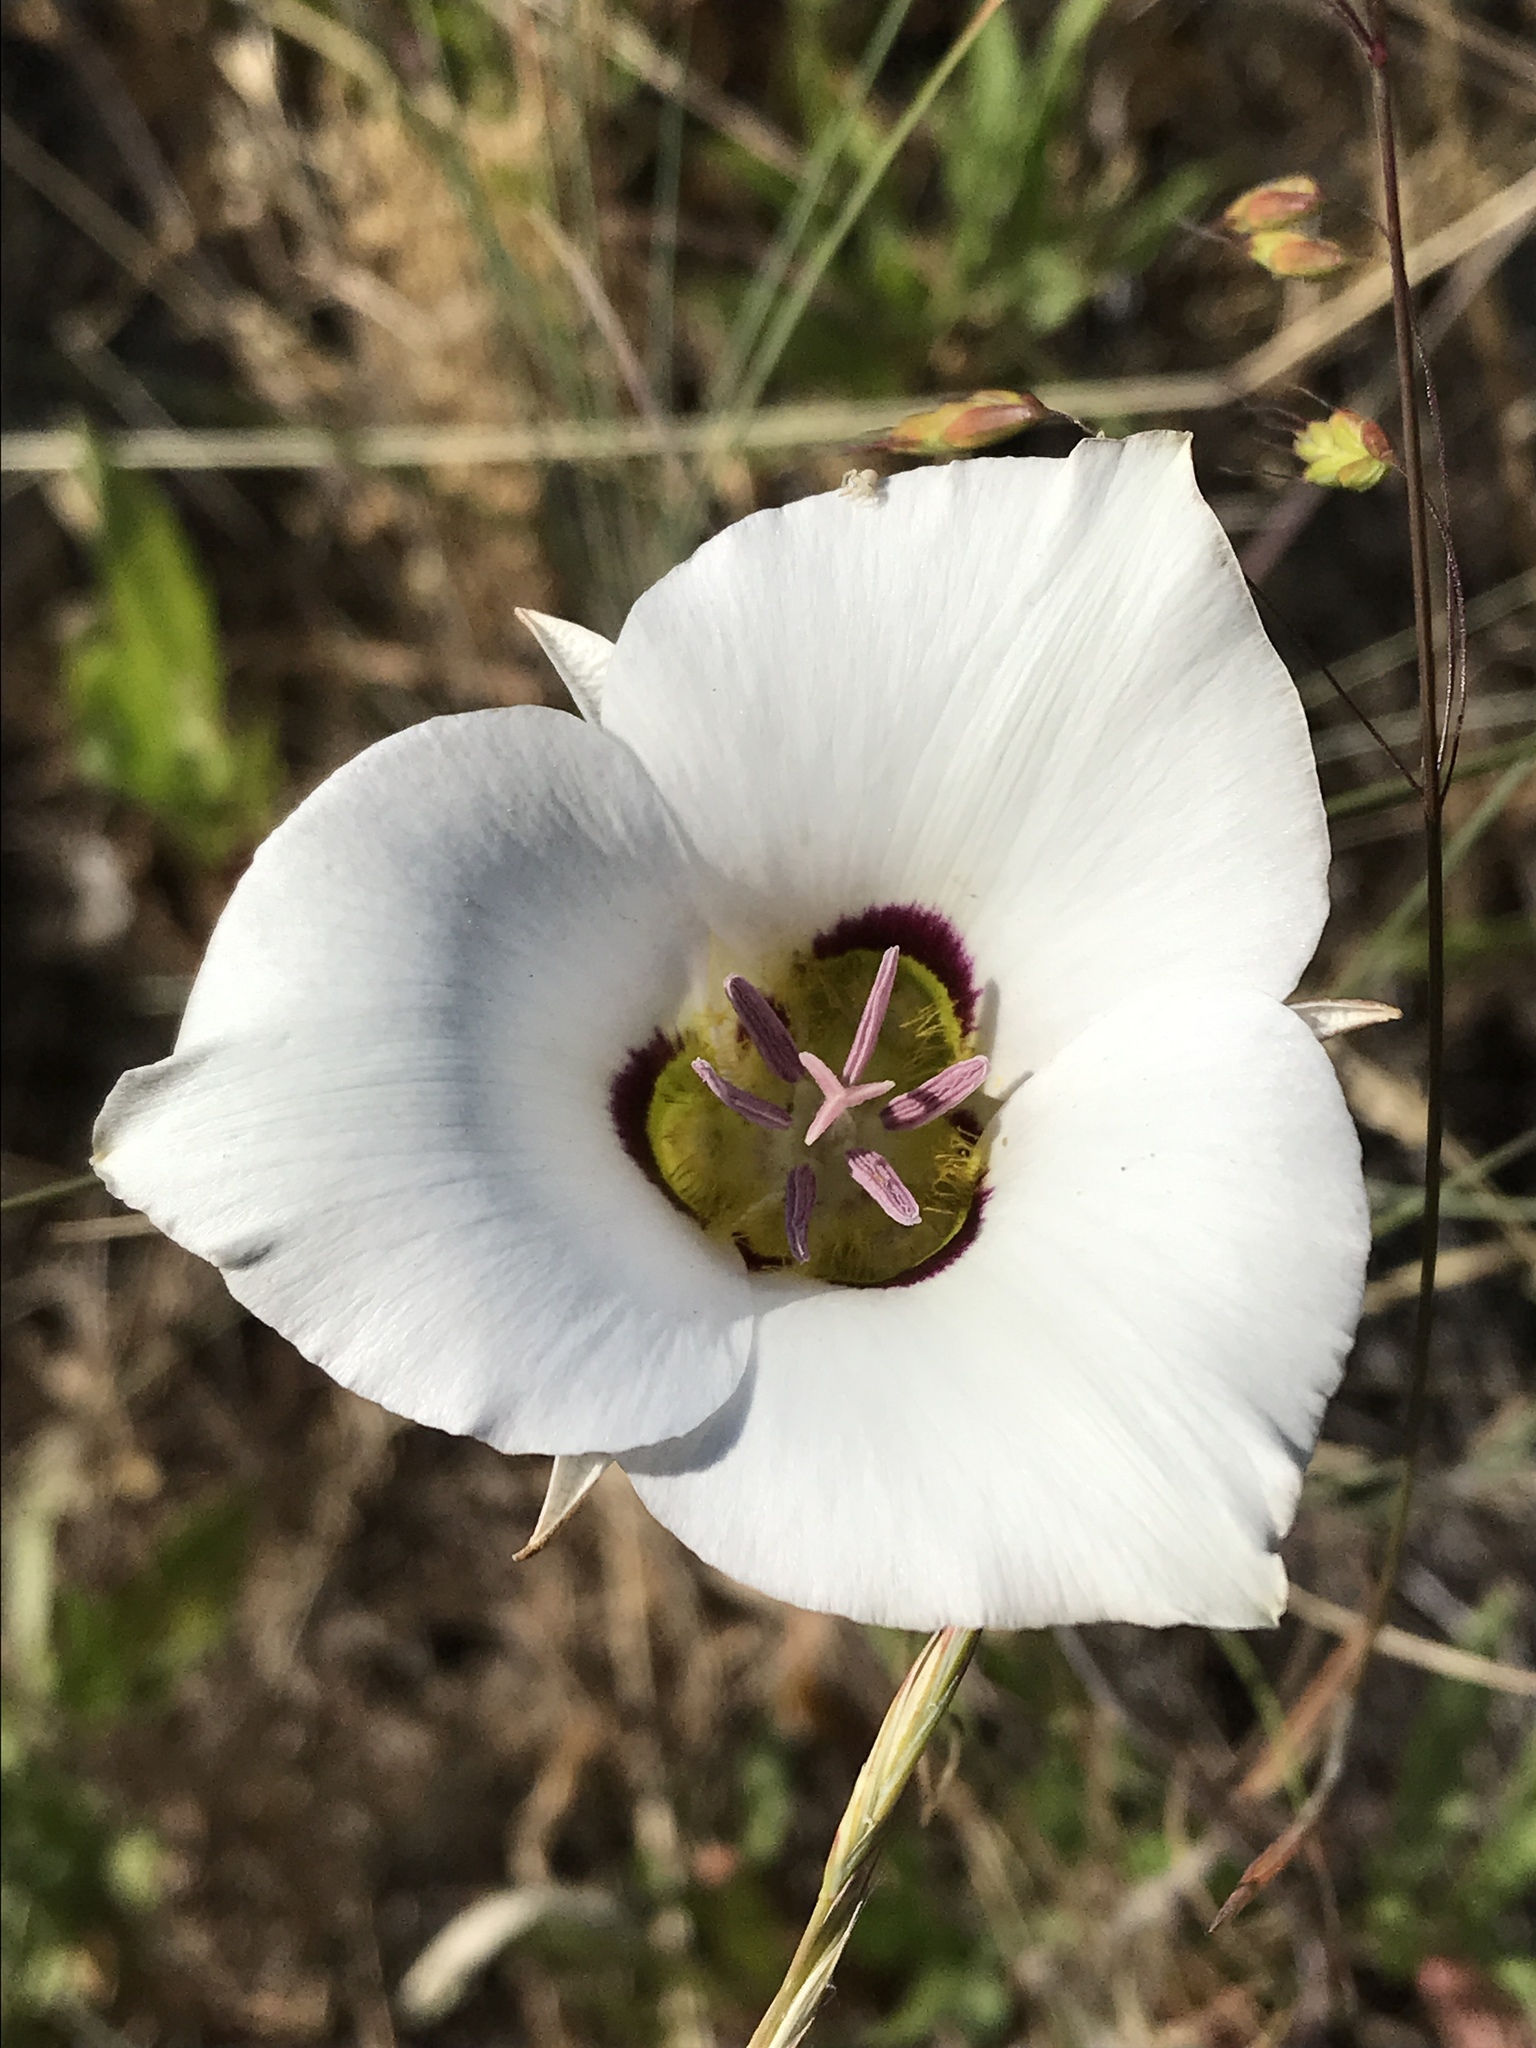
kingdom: Plantae
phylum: Tracheophyta
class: Liliopsida
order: Liliales
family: Liliaceae
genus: Calochortus
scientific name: Calochortus nuttallii
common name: Sego-lily
